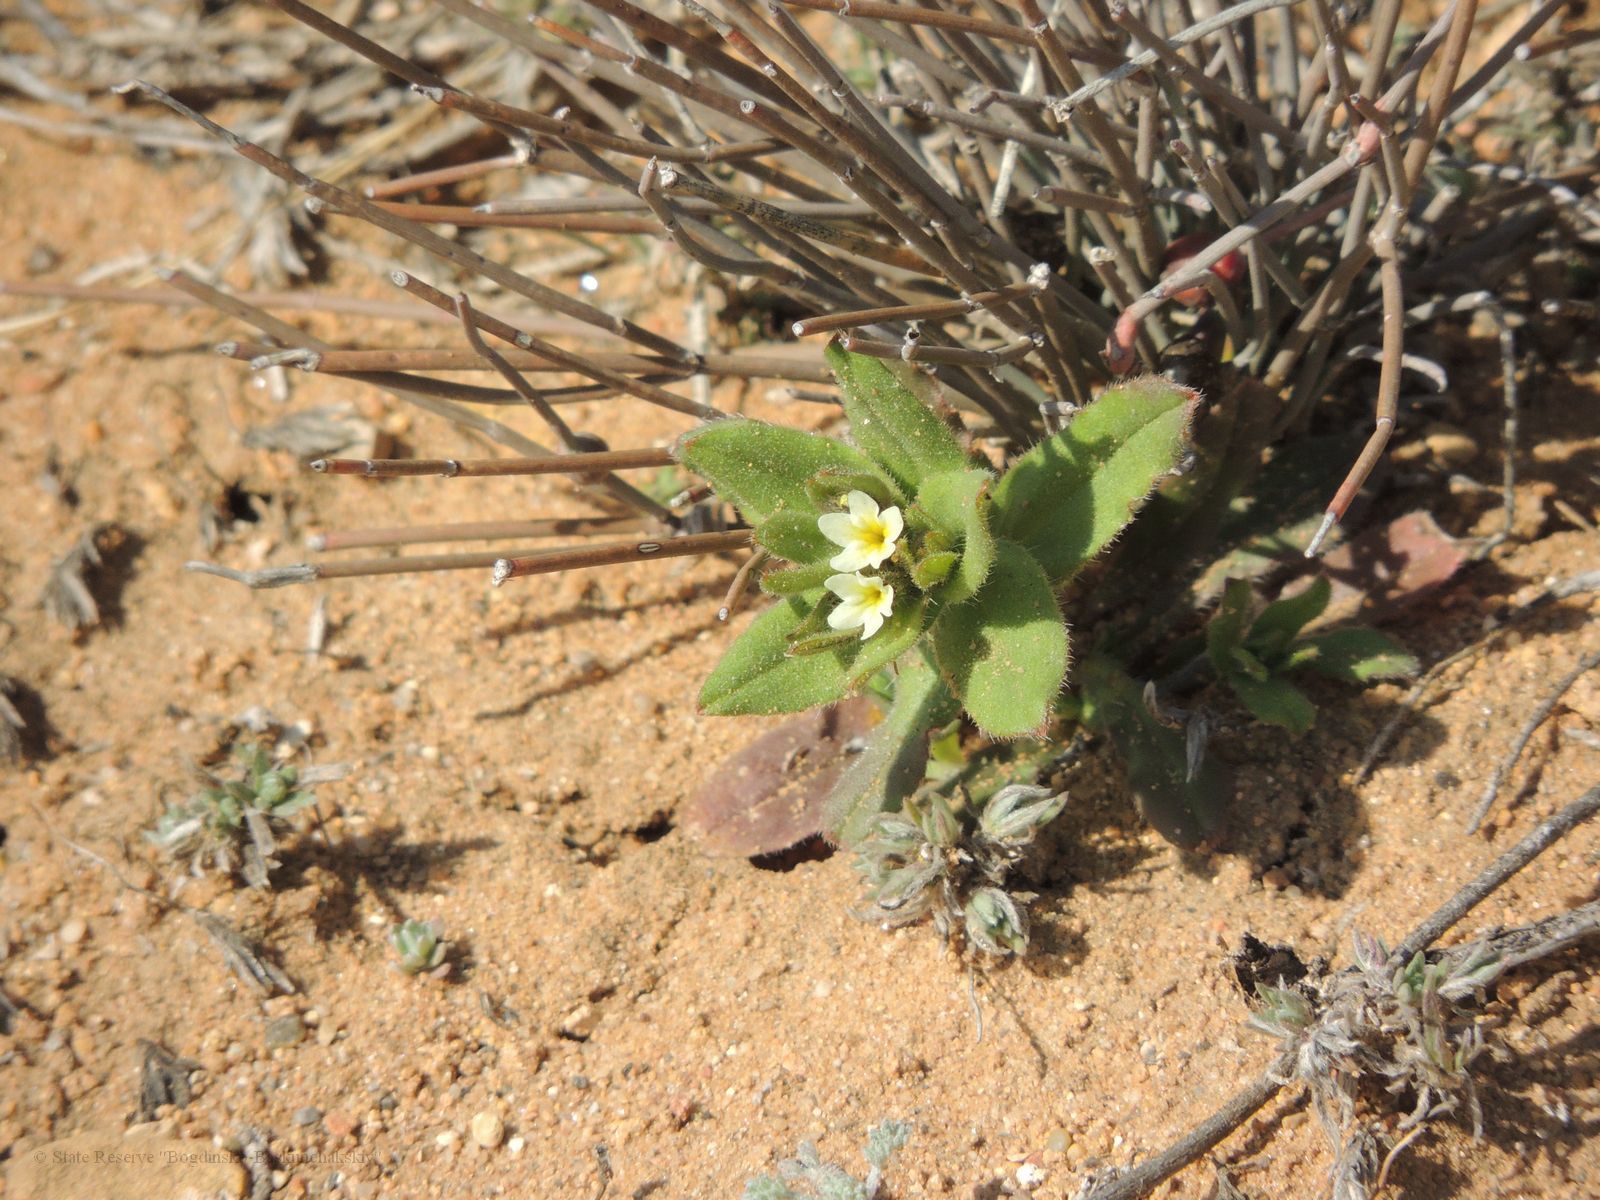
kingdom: Plantae
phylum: Tracheophyta
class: Magnoliopsida
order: Boraginales
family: Boraginaceae
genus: Buglossoides
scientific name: Buglossoides arvensis
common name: Corn gromwell
